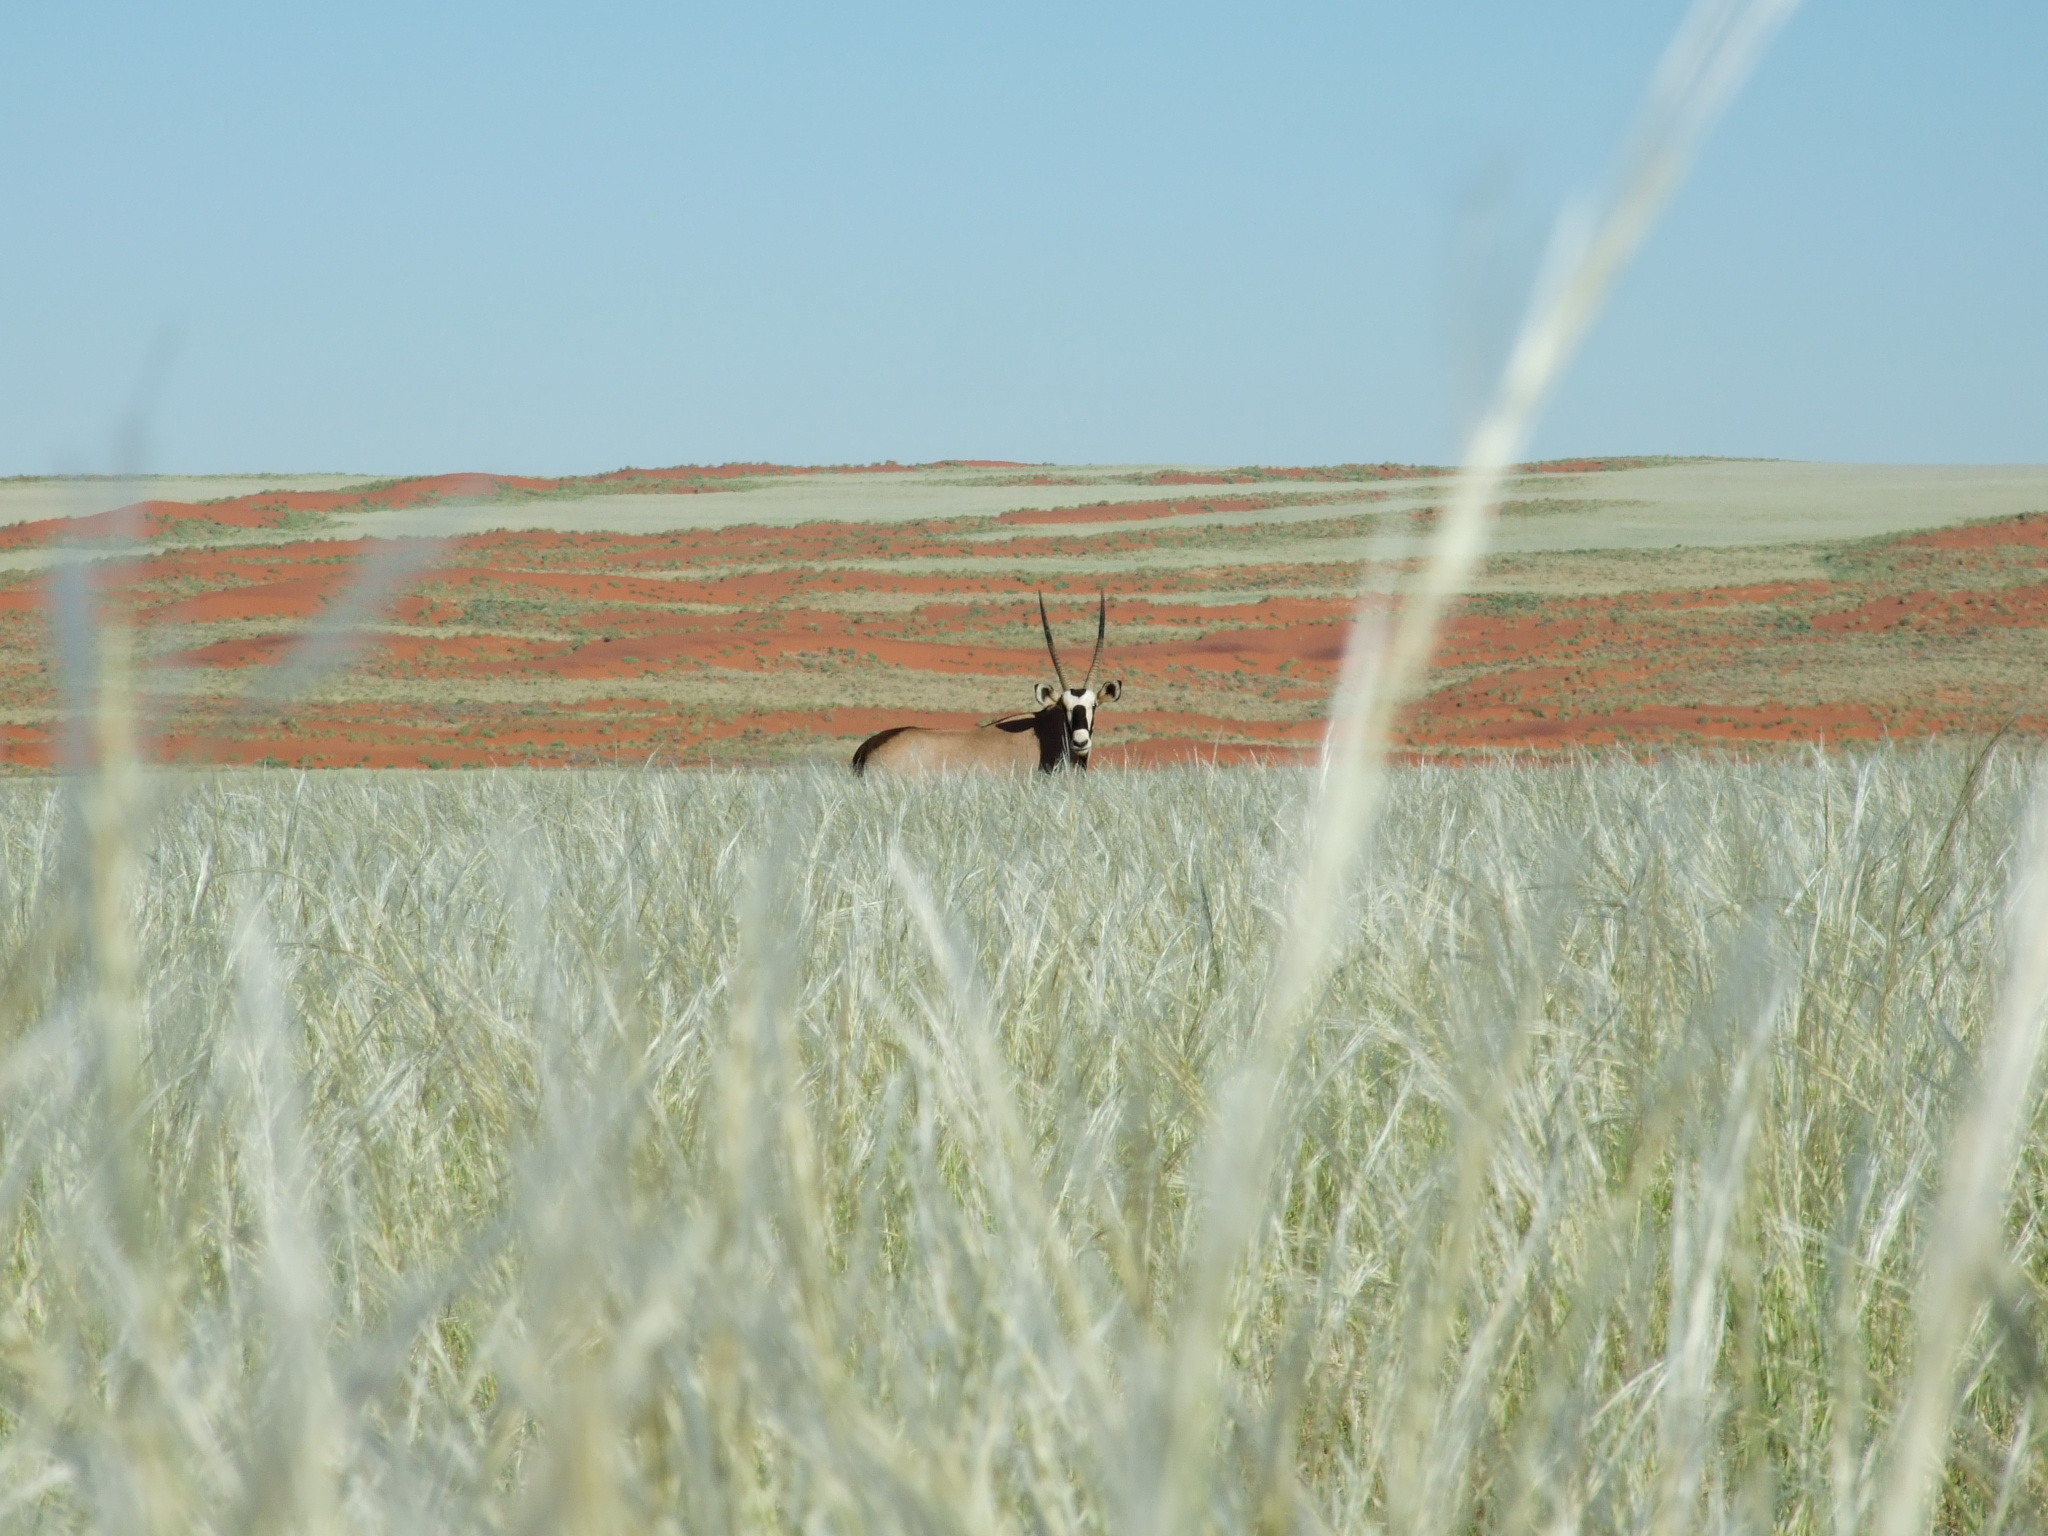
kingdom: Animalia
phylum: Chordata
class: Mammalia
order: Artiodactyla
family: Bovidae
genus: Oryx
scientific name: Oryx gazella
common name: Gemsbok
